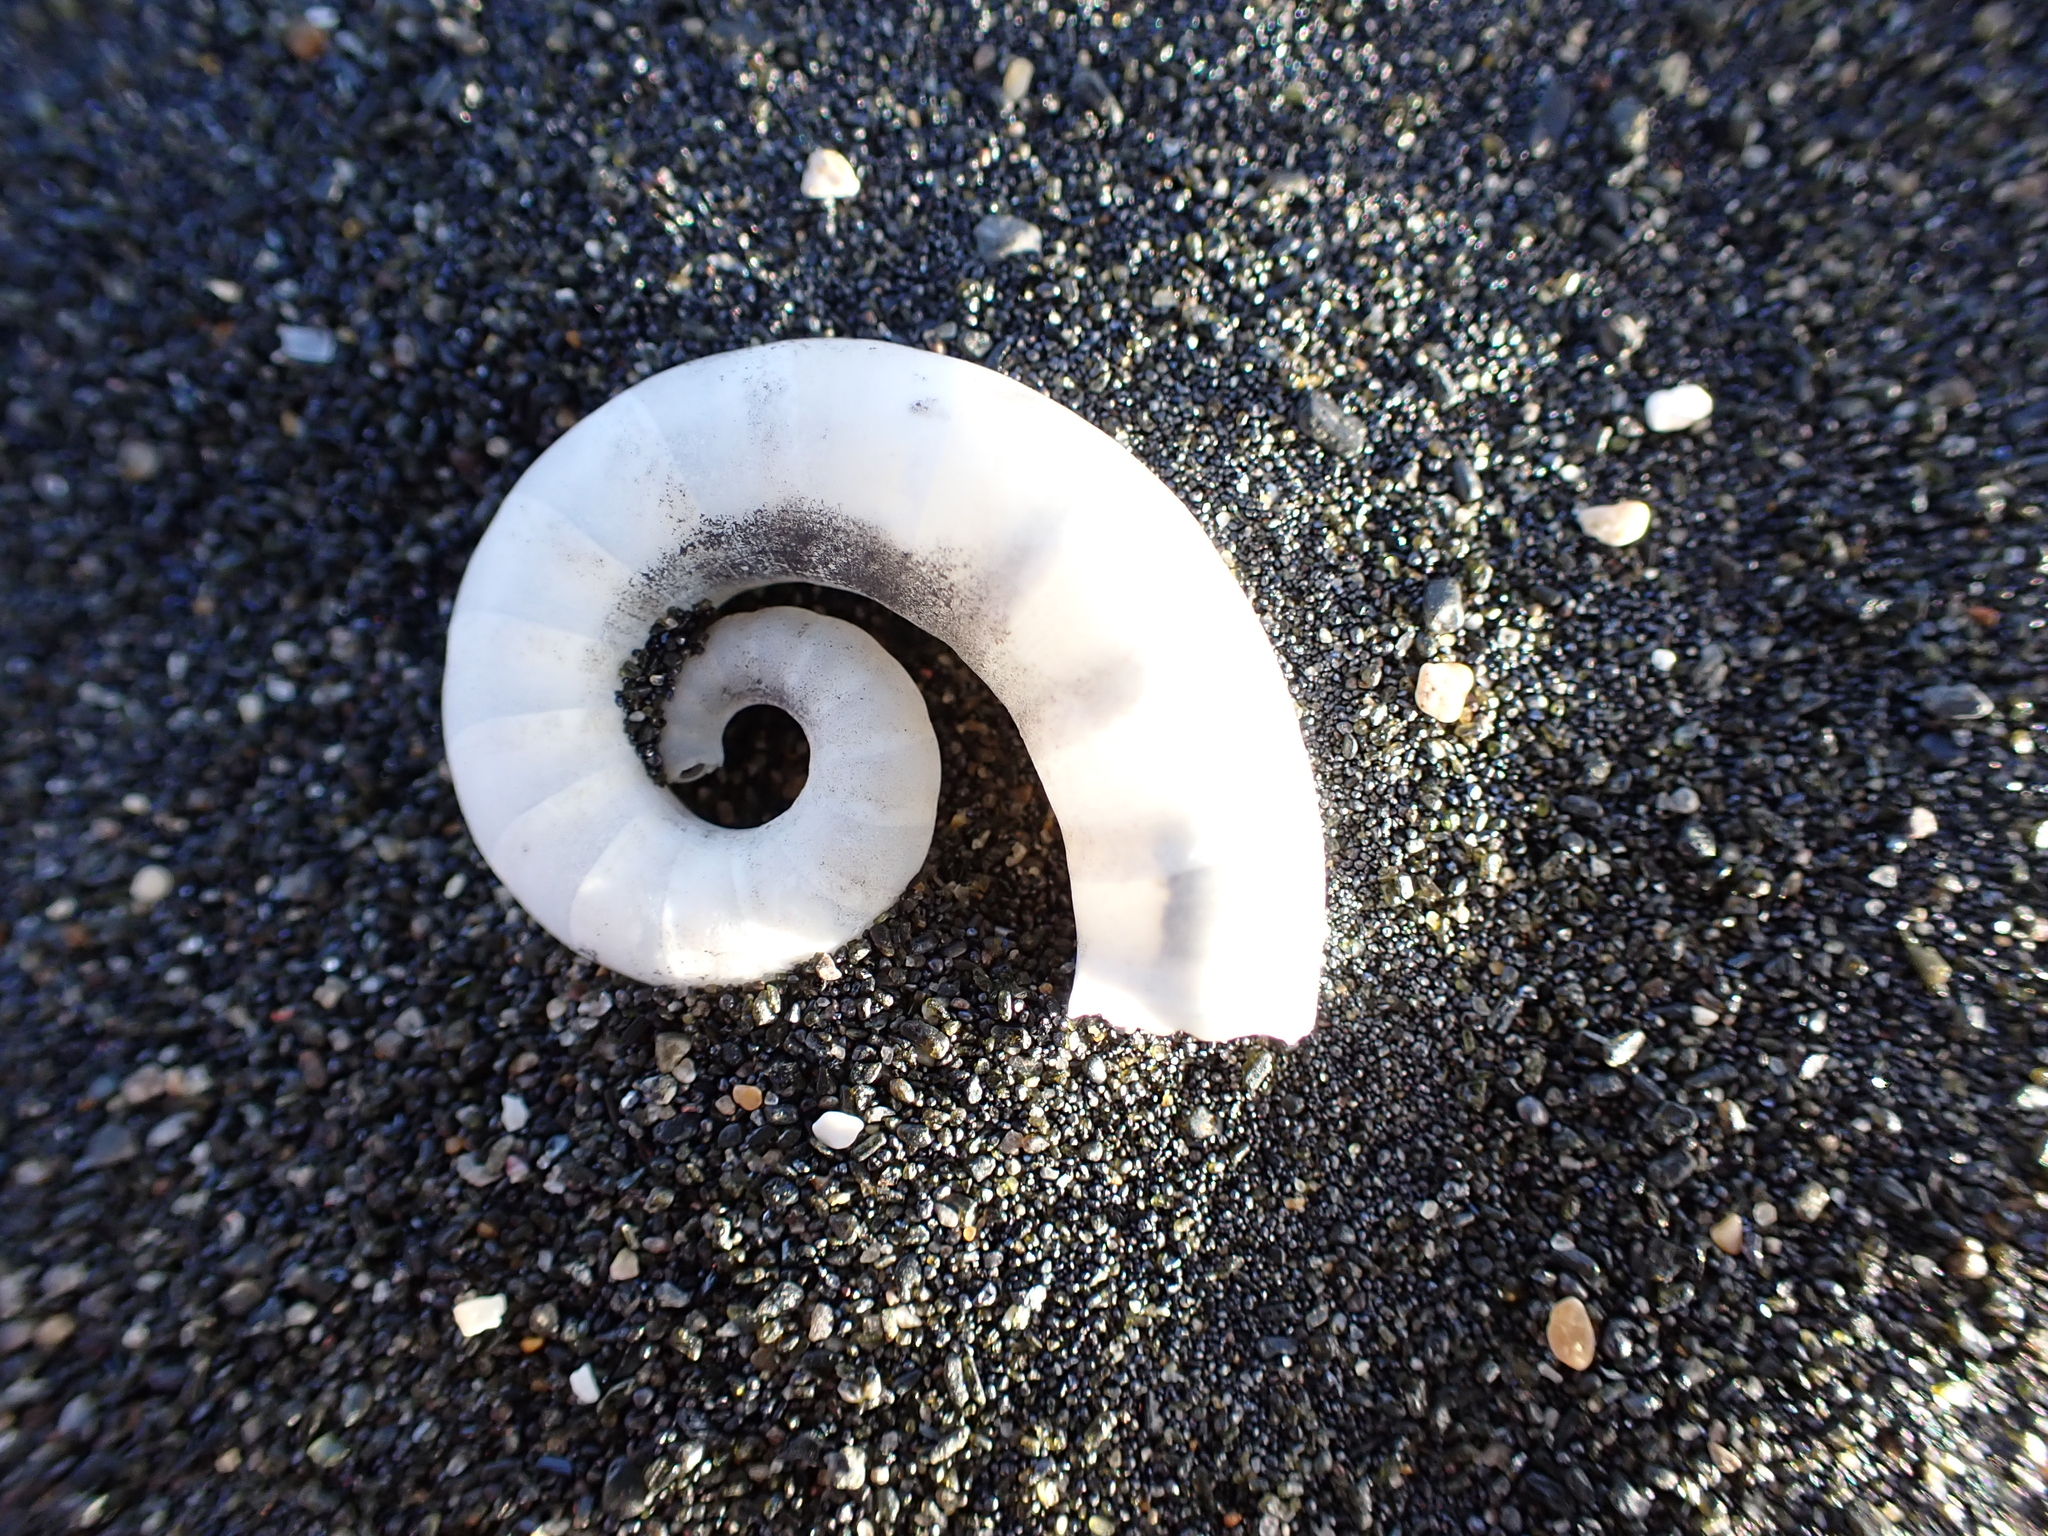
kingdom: Animalia
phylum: Mollusca
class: Cephalopoda
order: Spirulida
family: Spirulidae
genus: Spirula
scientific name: Spirula spirula
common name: Ram's horn squid
